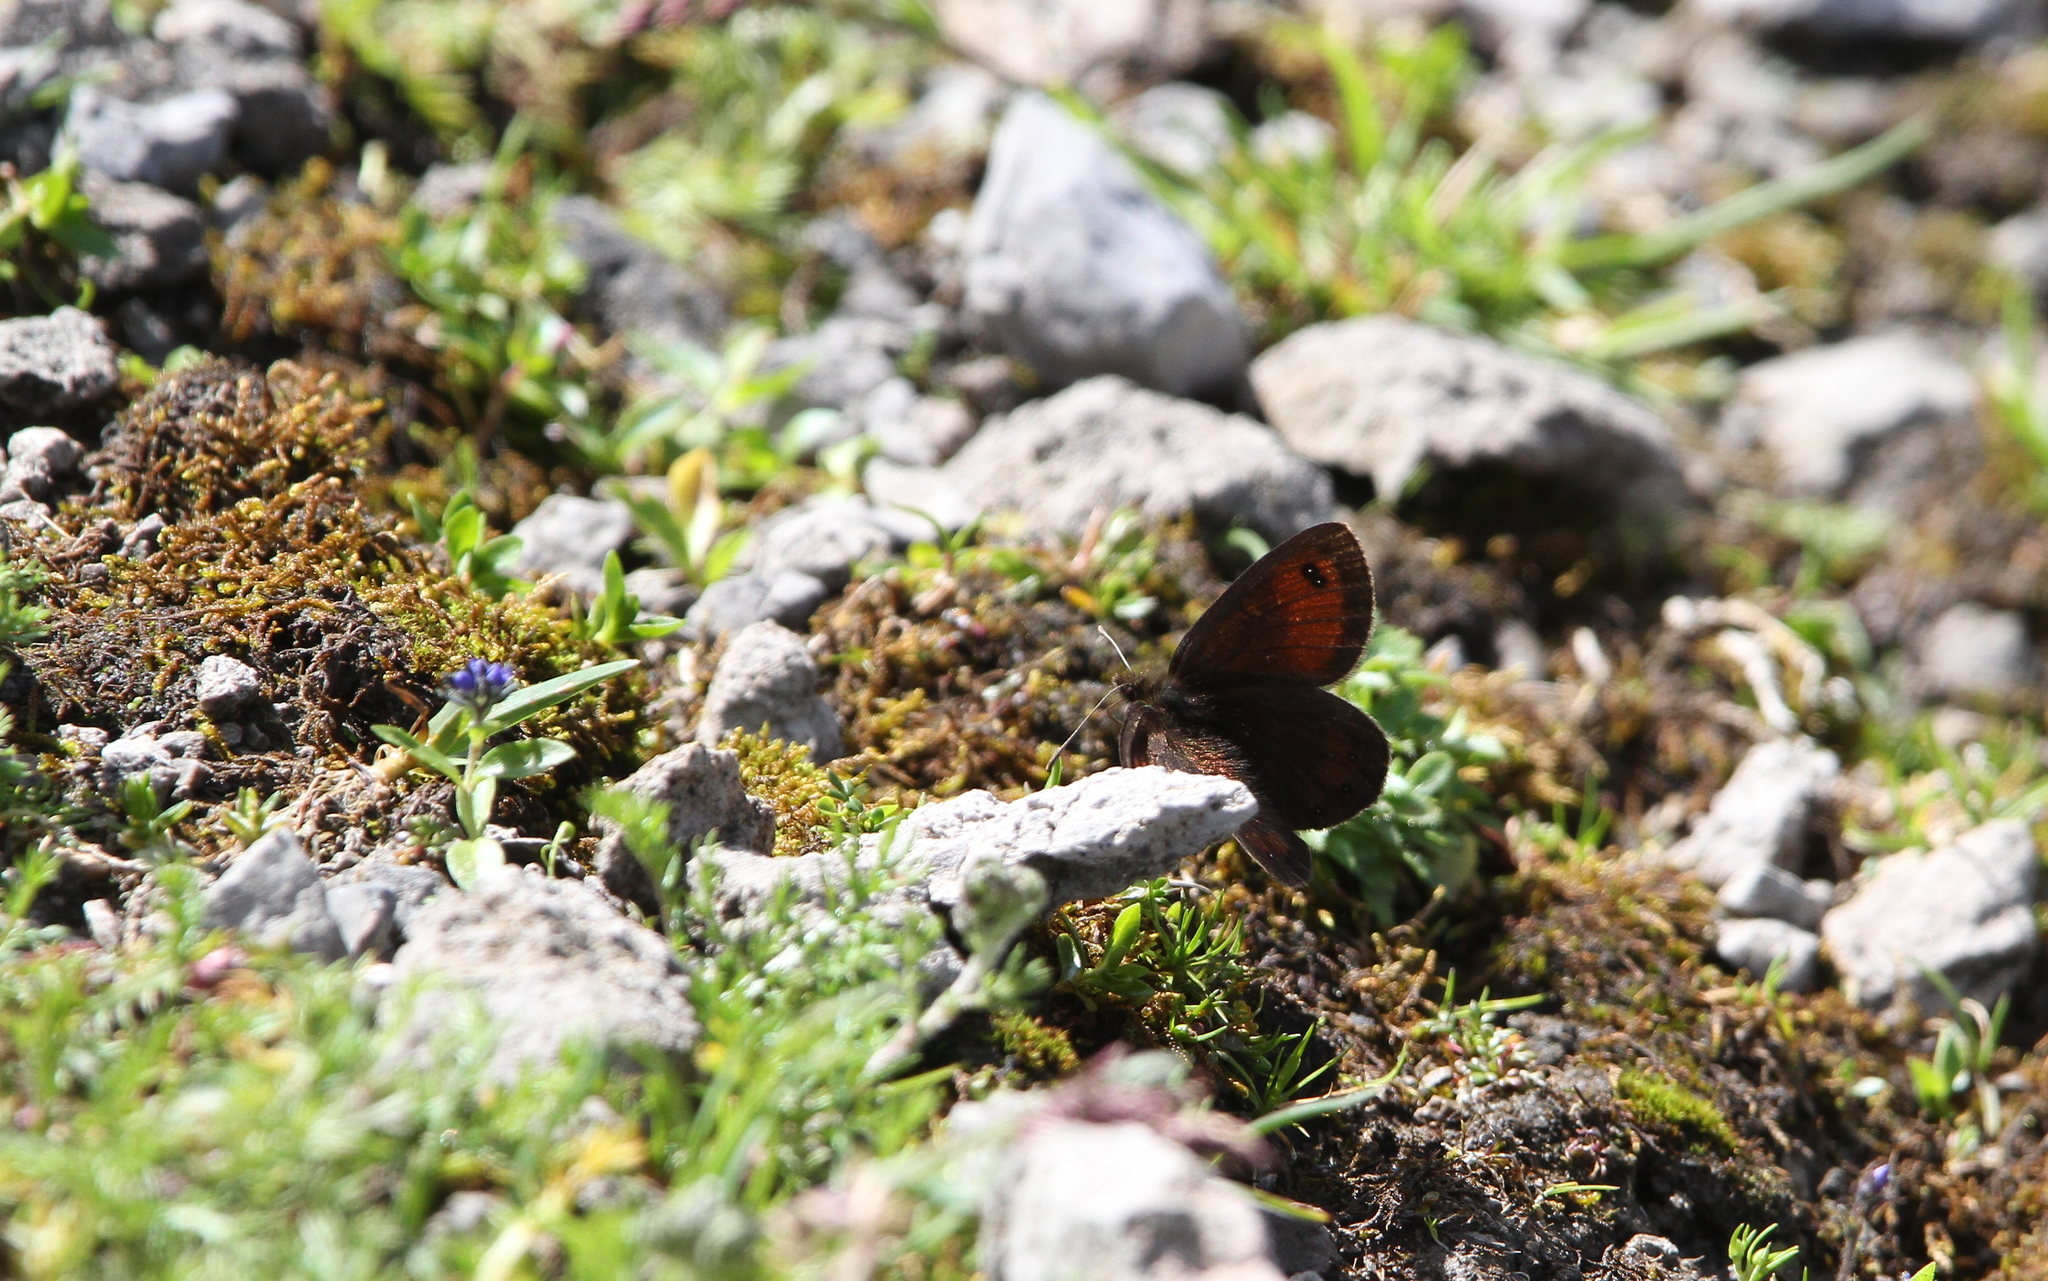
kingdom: Animalia
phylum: Arthropoda
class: Insecta
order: Lepidoptera
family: Nymphalidae
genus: Erebia
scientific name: Erebia gorge
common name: Silky ringlet
